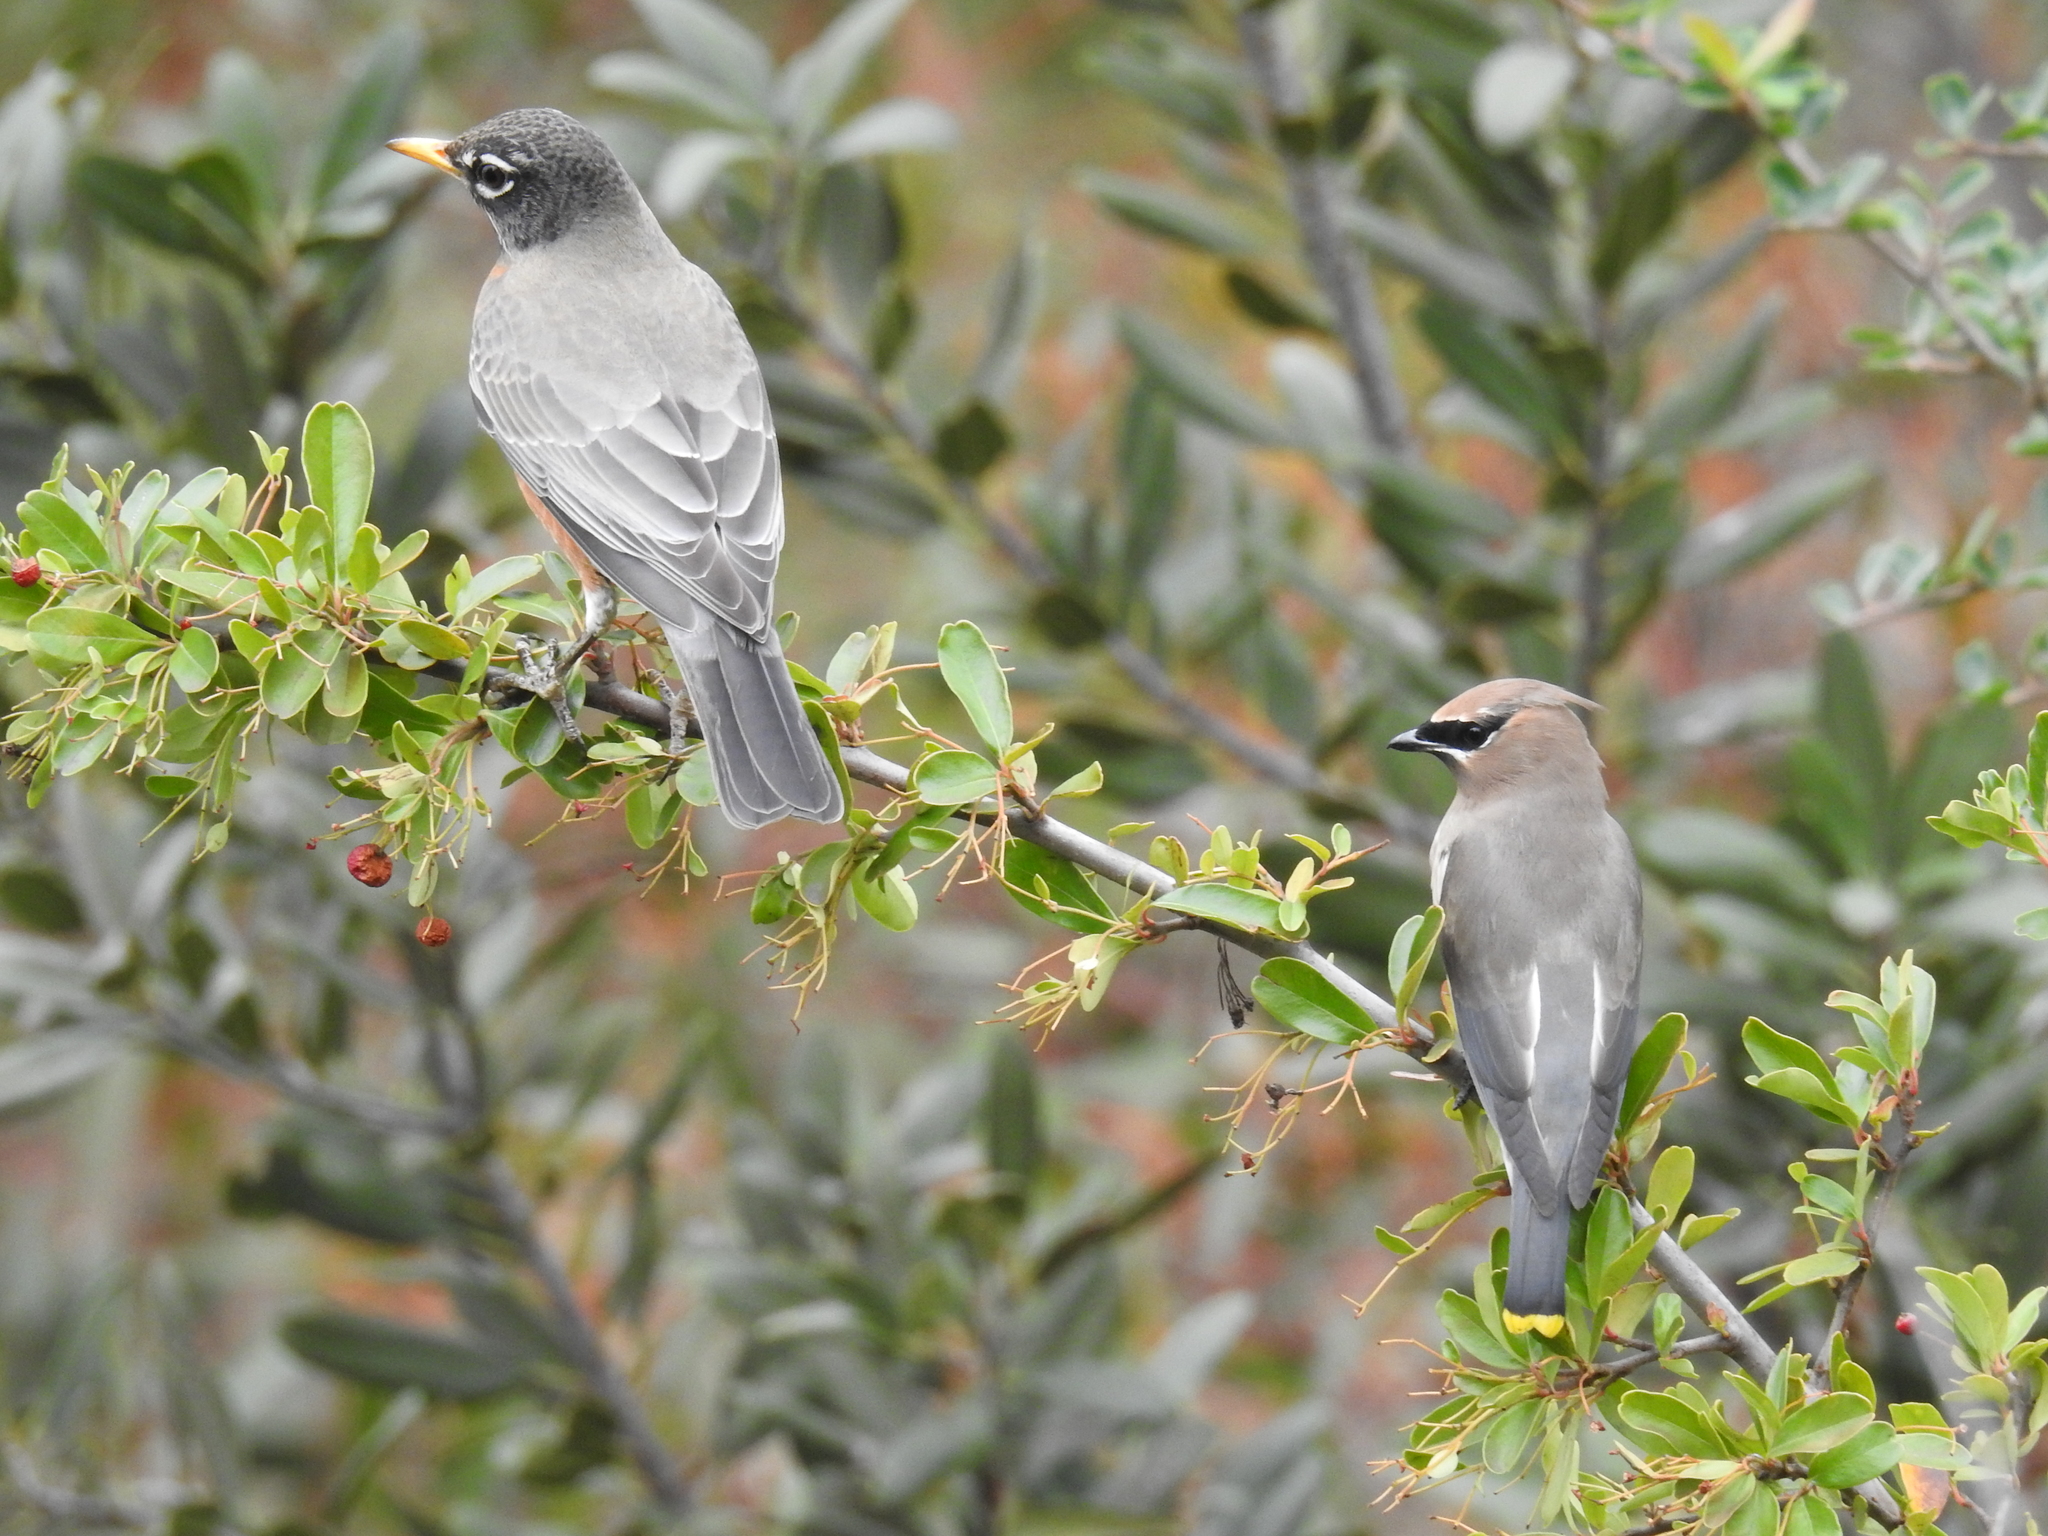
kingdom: Animalia
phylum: Chordata
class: Aves
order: Passeriformes
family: Bombycillidae
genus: Bombycilla
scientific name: Bombycilla cedrorum
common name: Cedar waxwing
